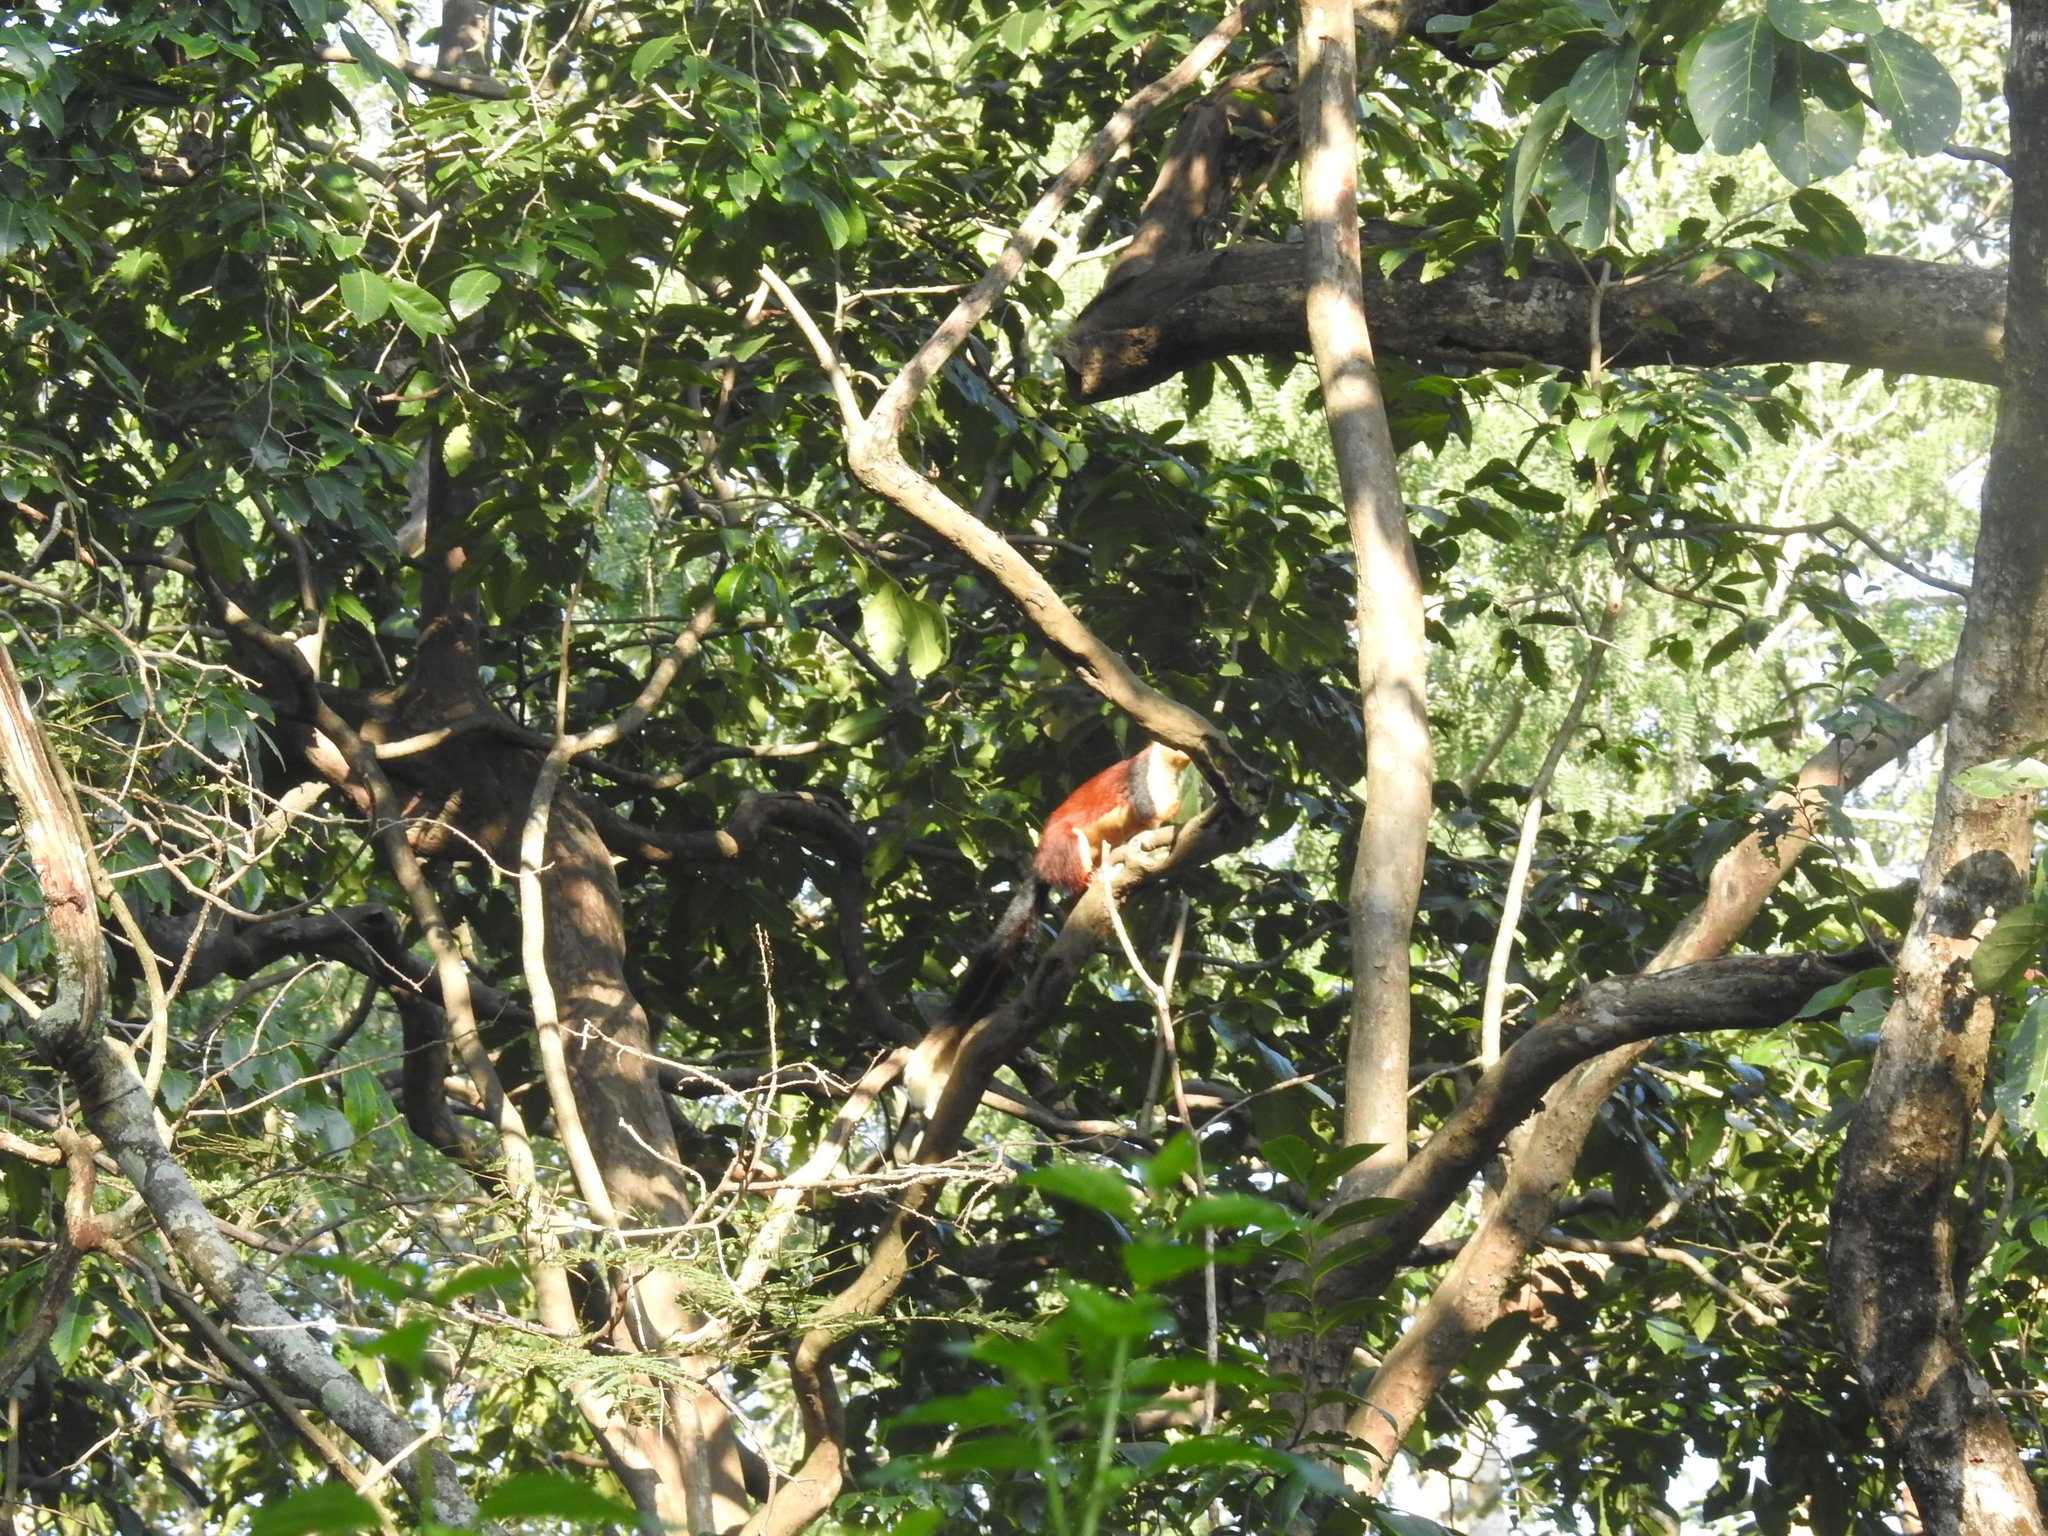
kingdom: Animalia
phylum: Chordata
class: Mammalia
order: Rodentia
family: Sciuridae
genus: Ratufa
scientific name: Ratufa indica
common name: Indian giant squirrel
